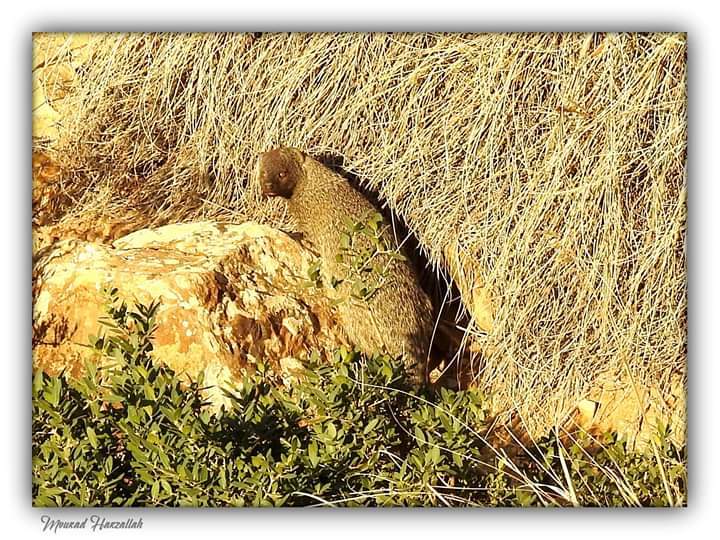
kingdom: Animalia
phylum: Chordata
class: Mammalia
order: Carnivora
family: Herpestidae
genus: Herpestes
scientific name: Herpestes ichneumon
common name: Egyptian mongoose
